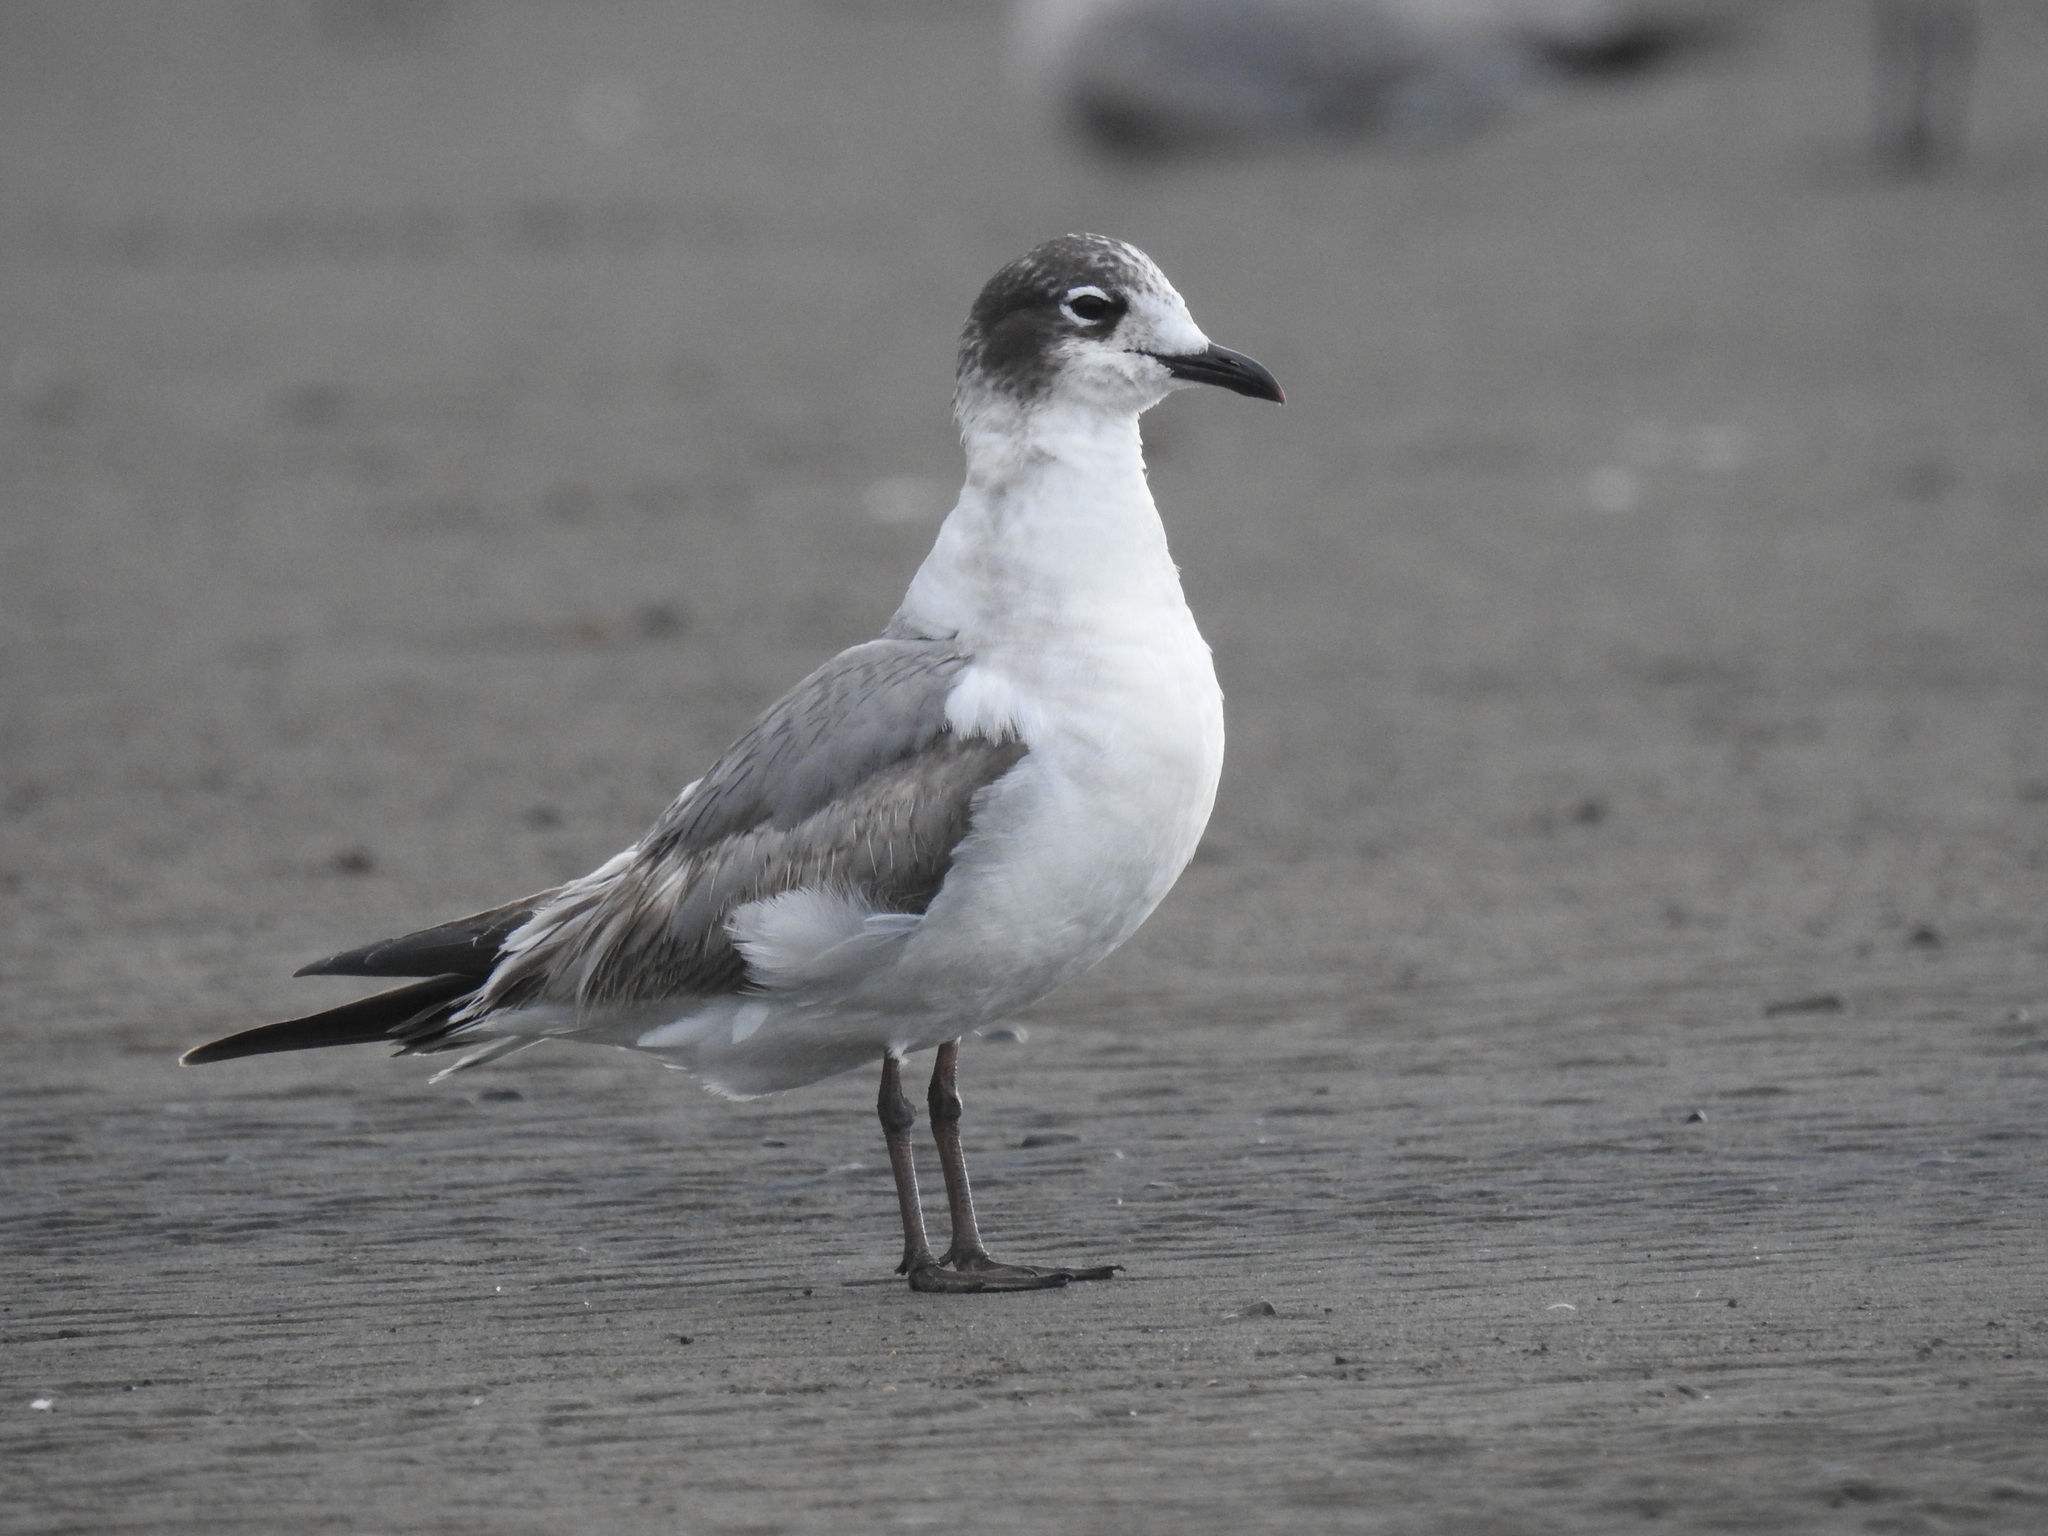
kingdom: Animalia
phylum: Chordata
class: Aves
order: Charadriiformes
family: Laridae
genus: Leucophaeus
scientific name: Leucophaeus pipixcan
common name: Franklin's gull
